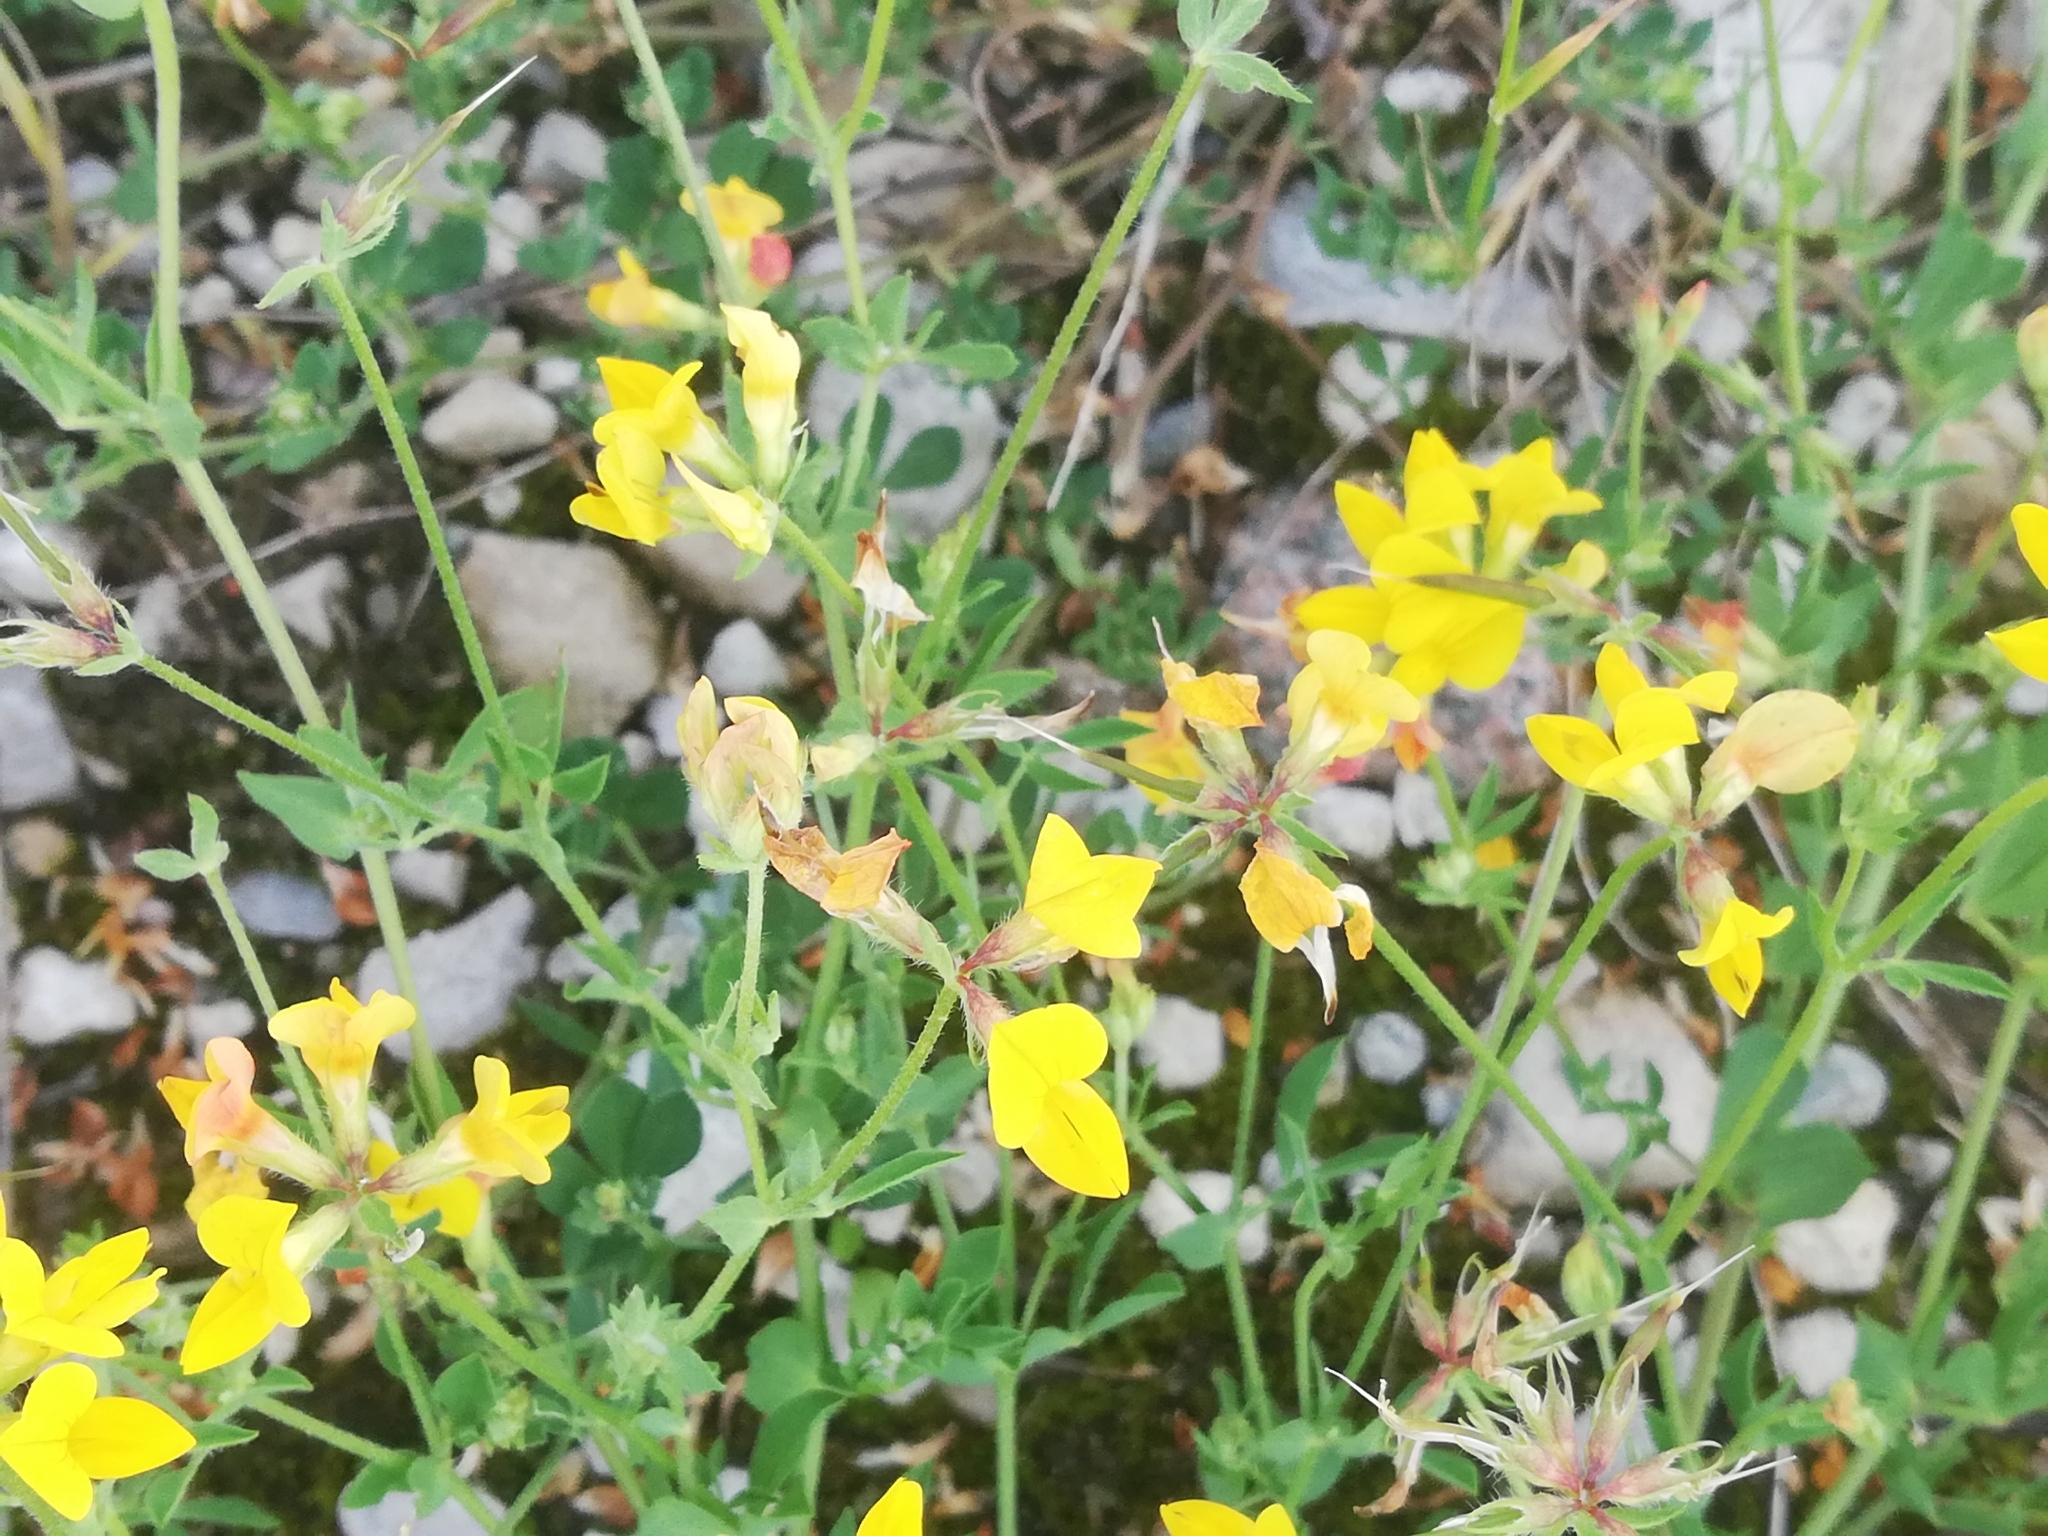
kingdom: Plantae
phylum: Tracheophyta
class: Magnoliopsida
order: Fabales
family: Fabaceae
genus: Lotus
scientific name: Lotus corniculatus
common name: Common bird's-foot-trefoil
